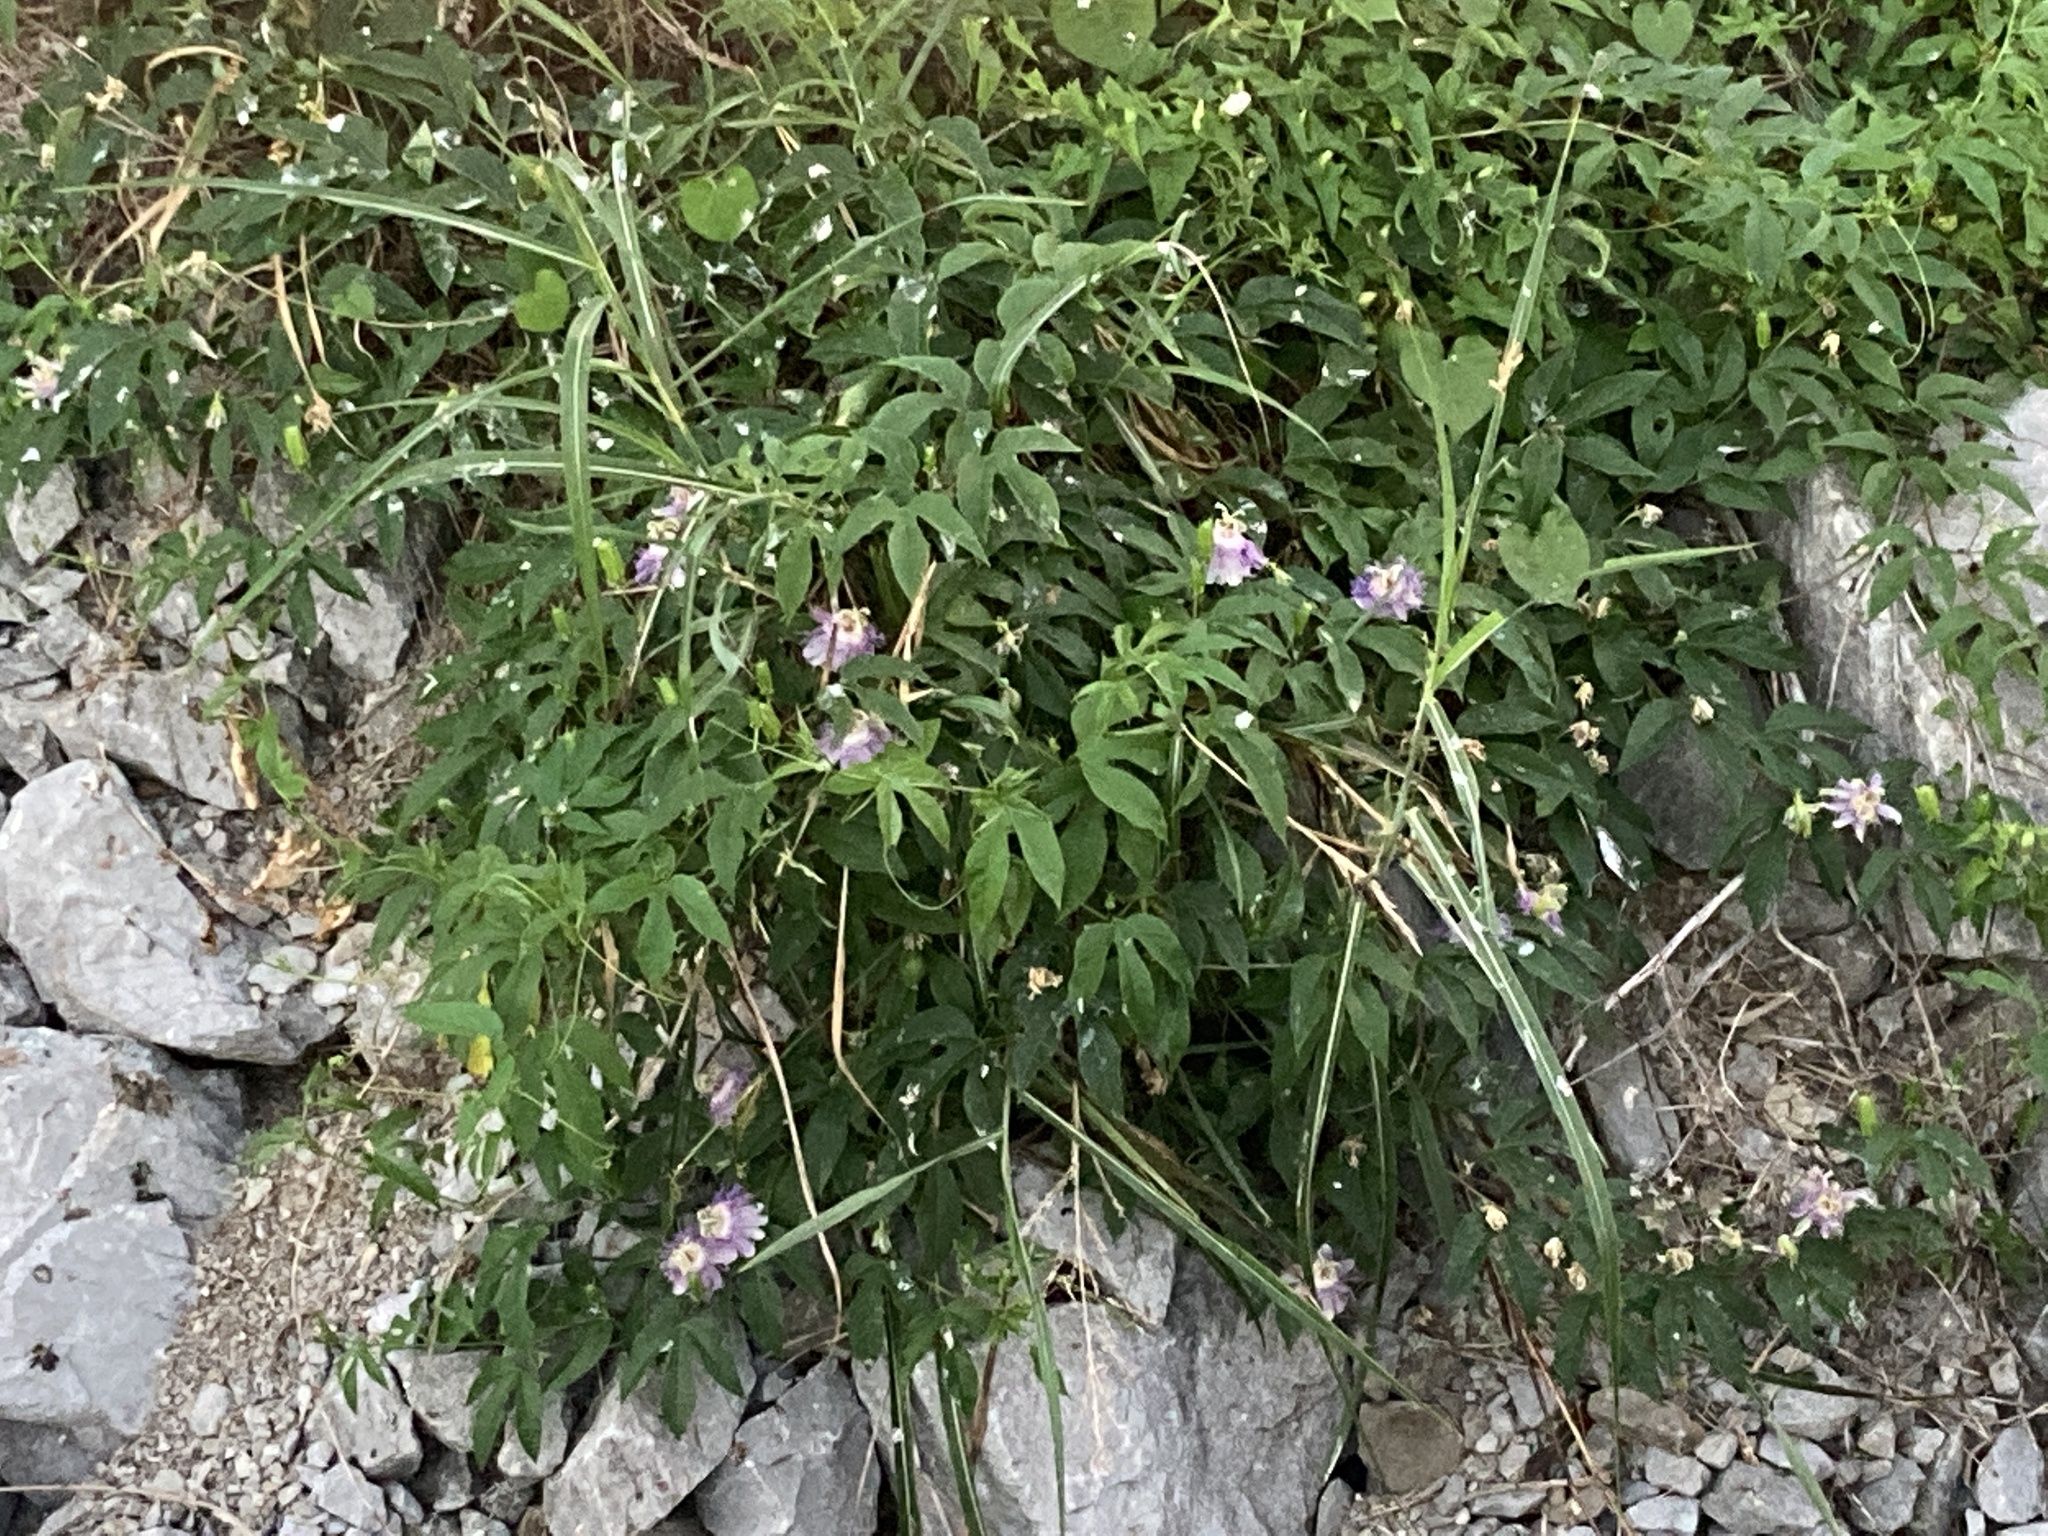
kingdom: Plantae
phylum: Tracheophyta
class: Magnoliopsida
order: Malpighiales
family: Passifloraceae
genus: Passiflora
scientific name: Passiflora incarnata
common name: Apricot-vine
